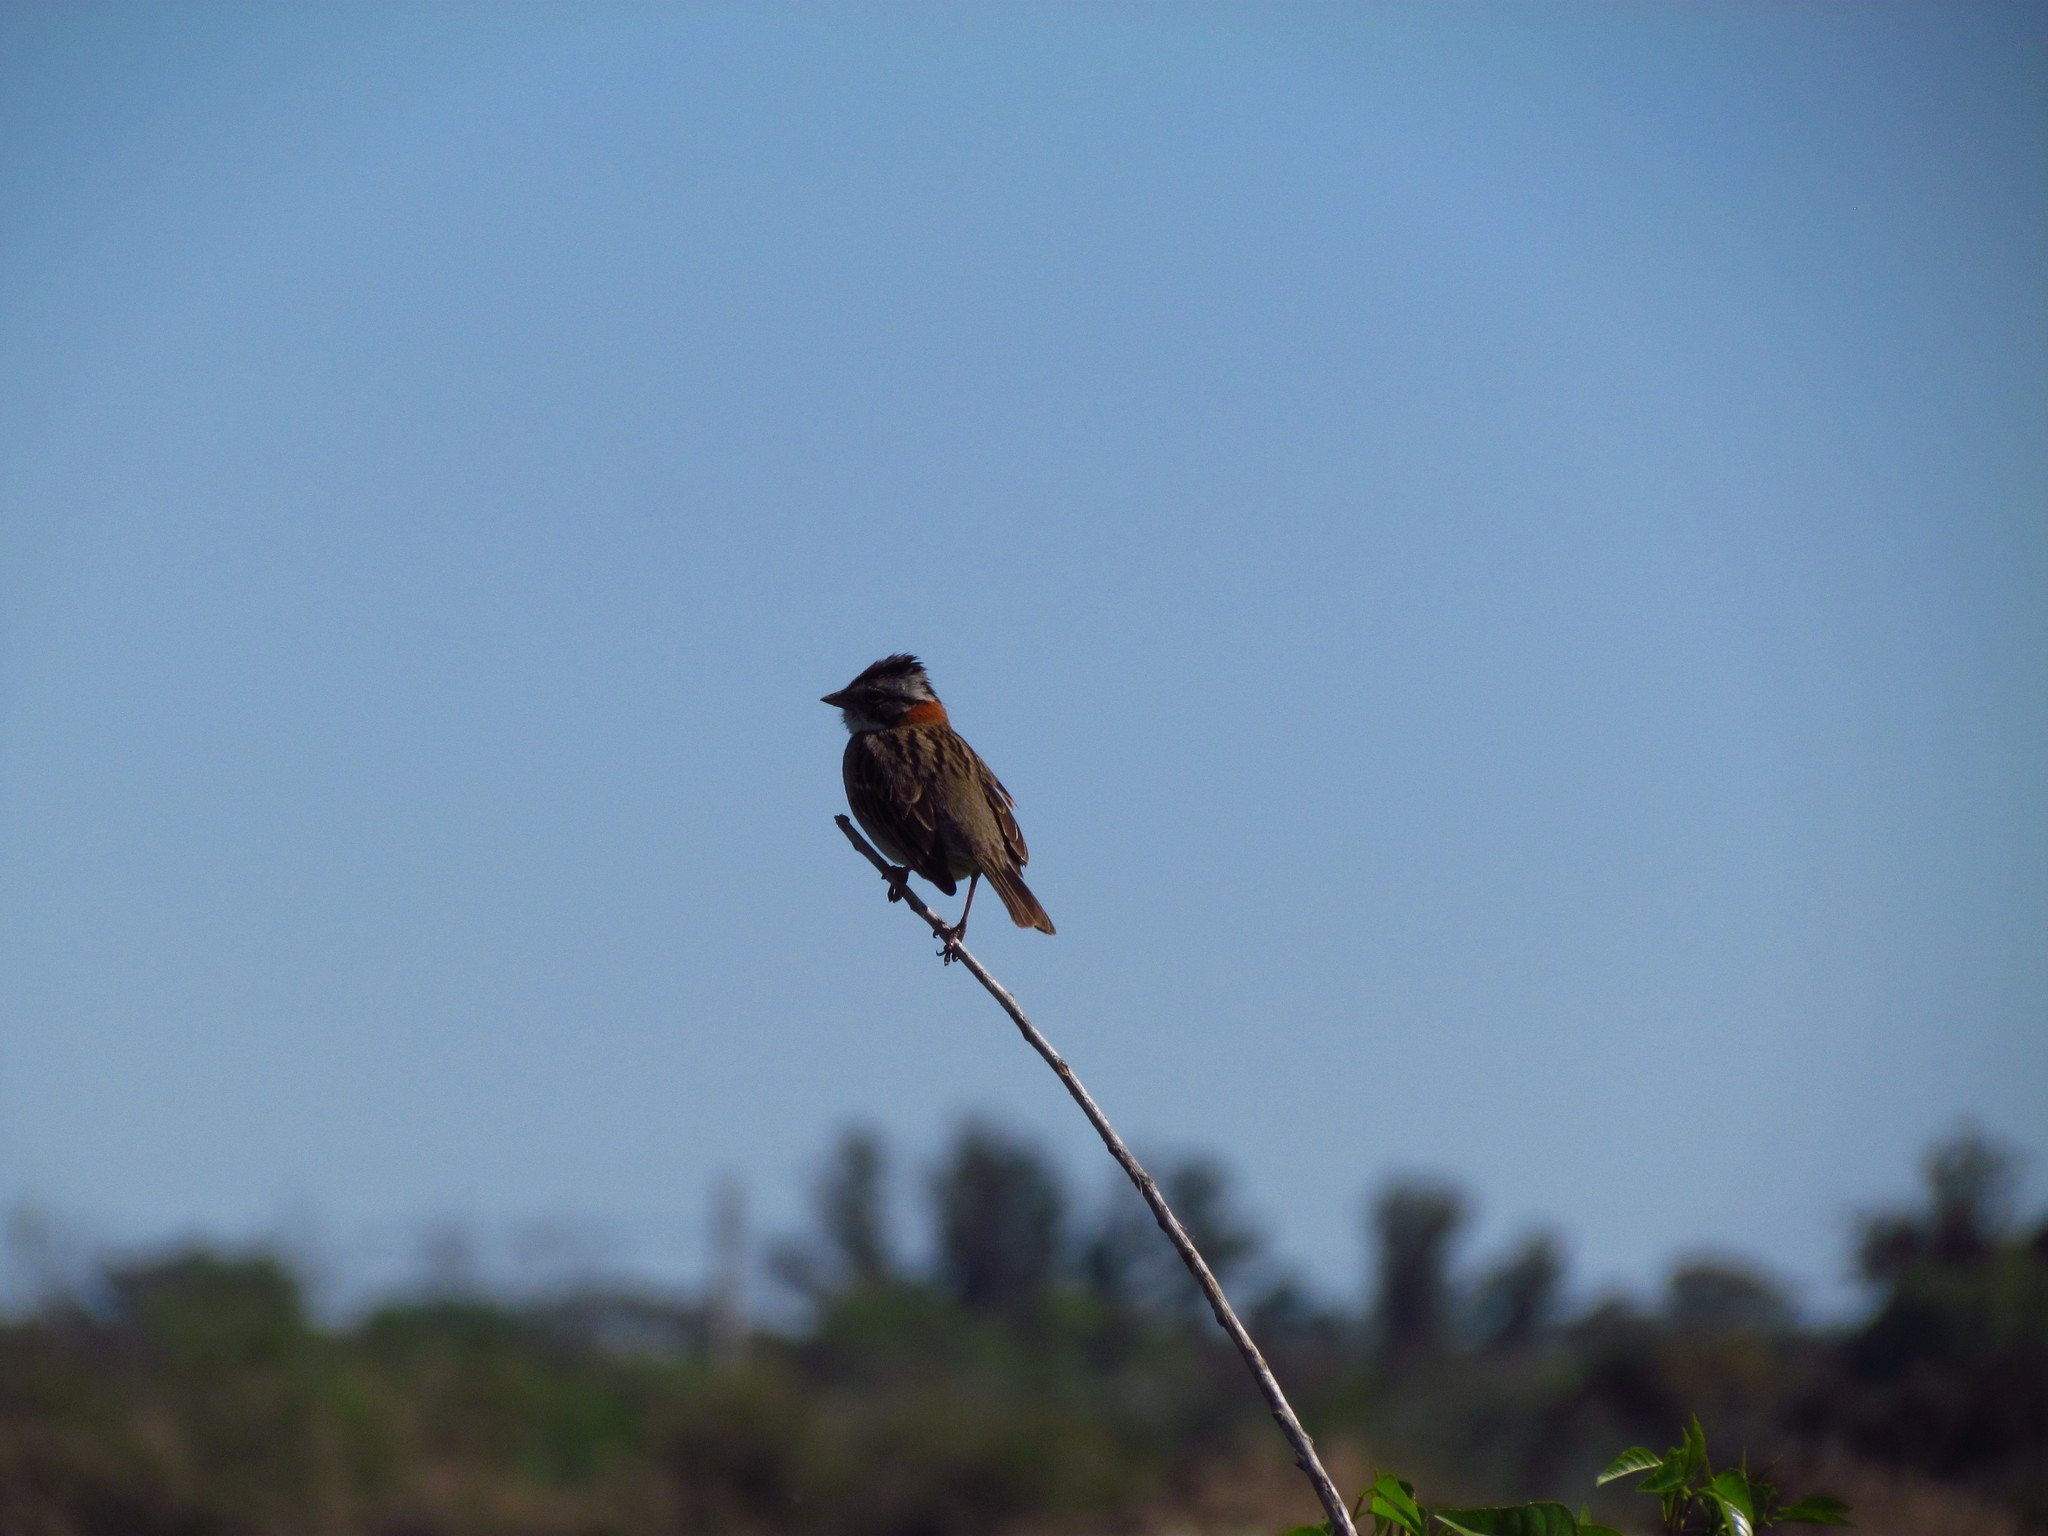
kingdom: Animalia
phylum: Chordata
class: Aves
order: Passeriformes
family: Passerellidae
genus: Zonotrichia
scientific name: Zonotrichia capensis
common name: Rufous-collared sparrow
